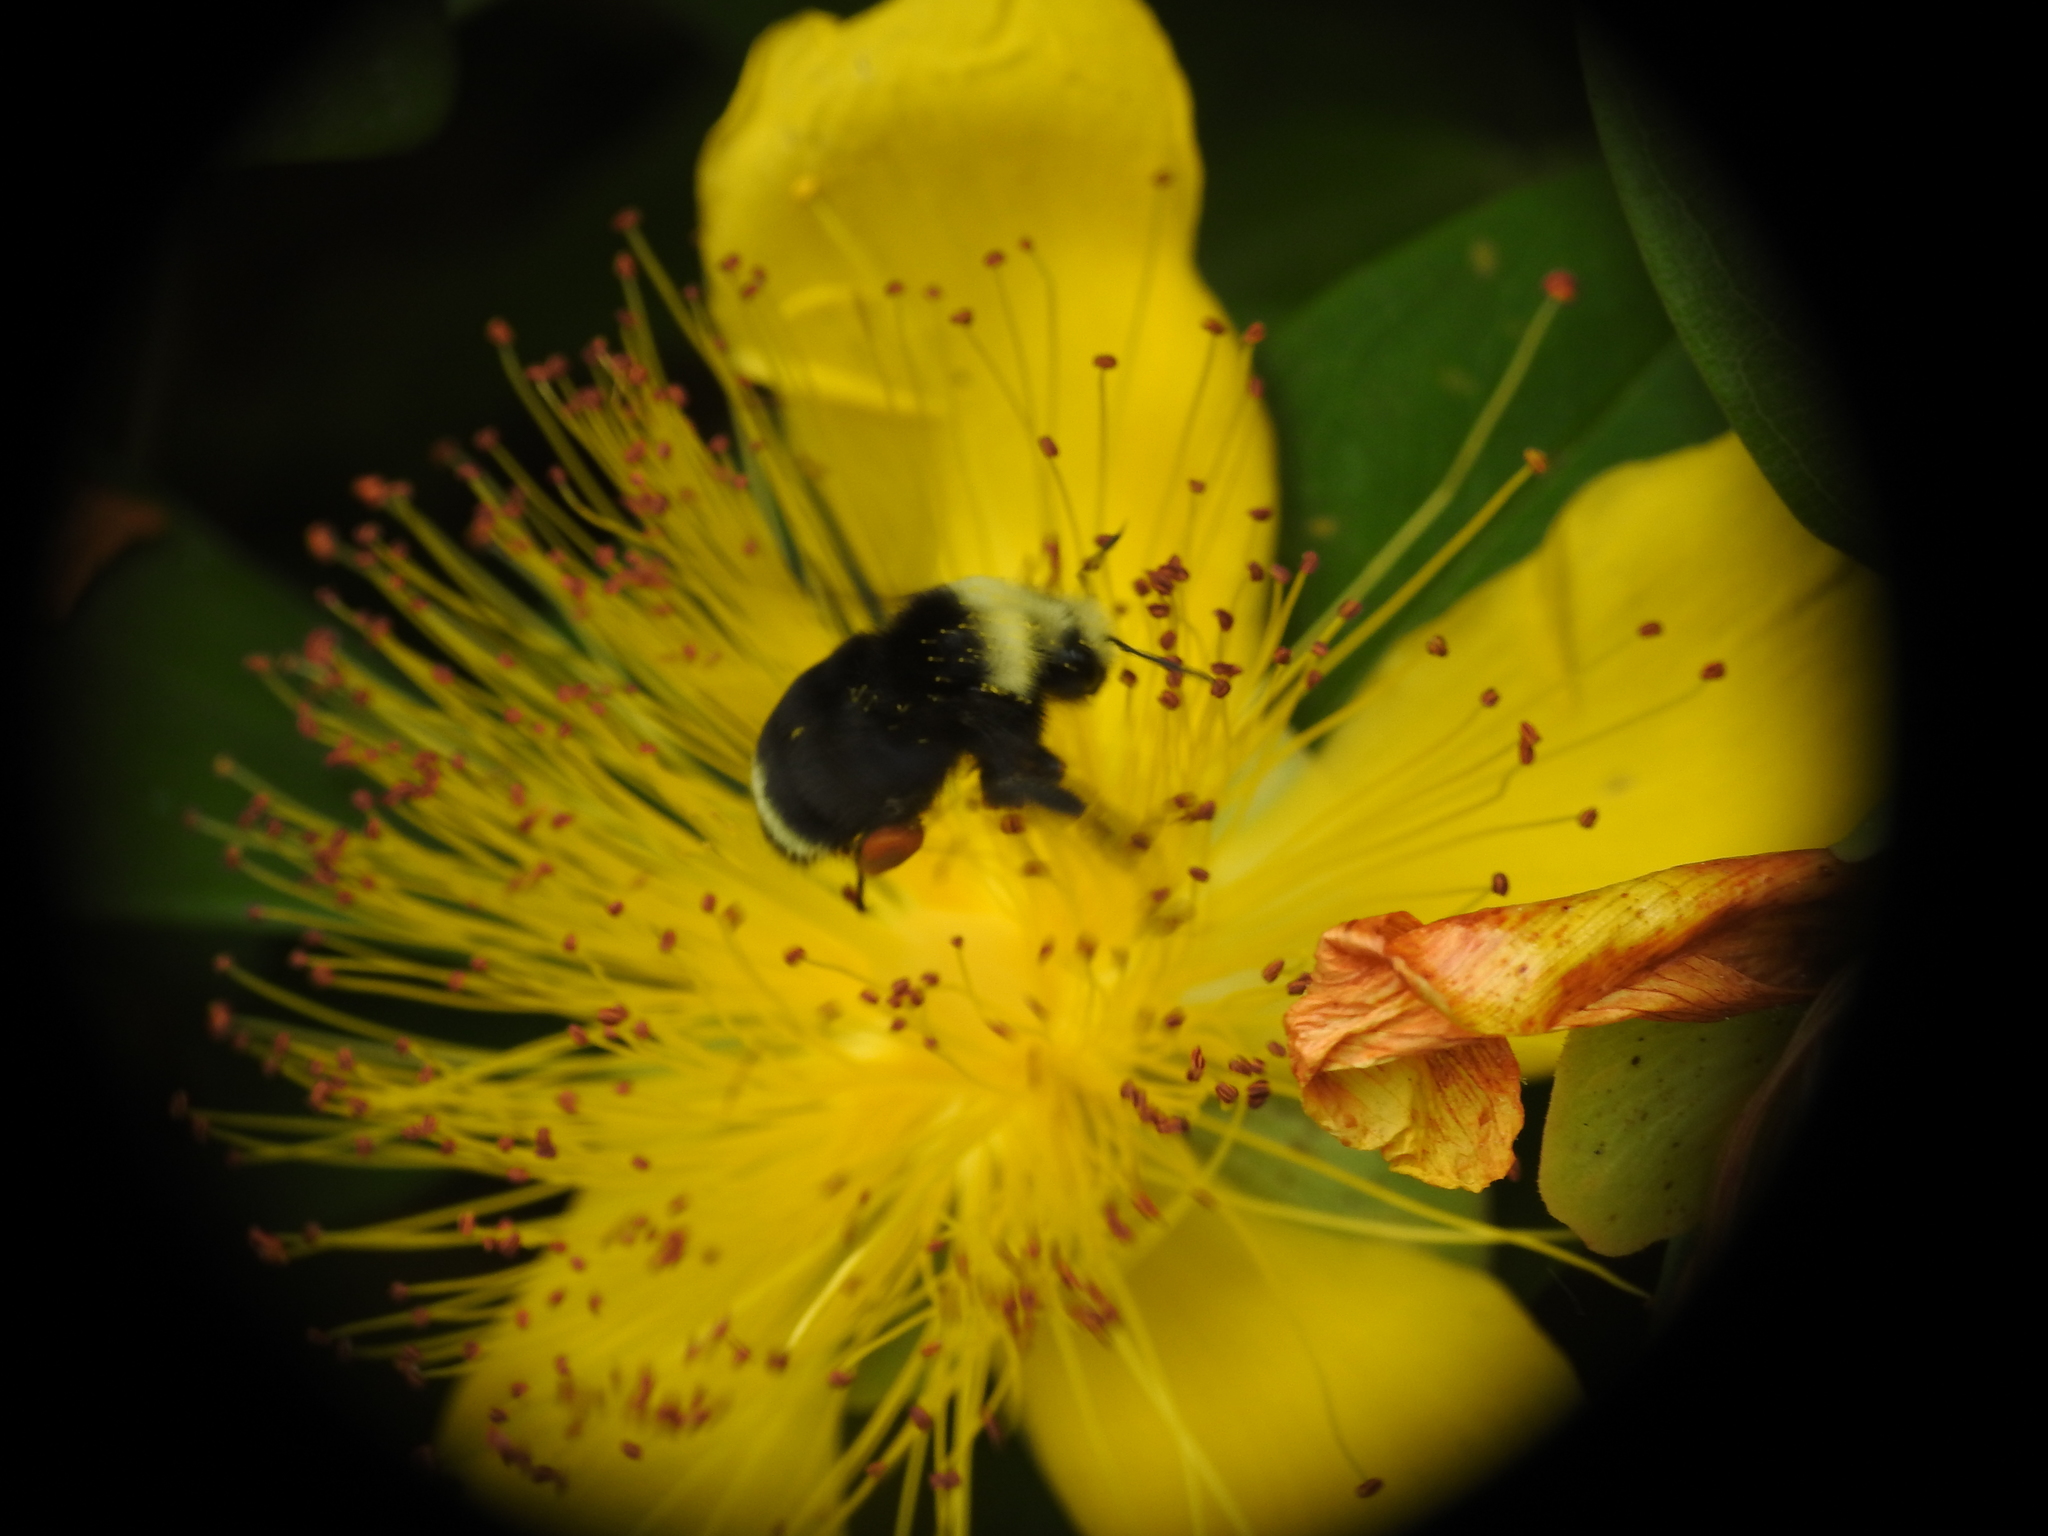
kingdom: Animalia
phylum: Arthropoda
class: Insecta
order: Hymenoptera
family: Apidae
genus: Bombus
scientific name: Bombus vosnesenskii
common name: Vosnesensky bumble bee
